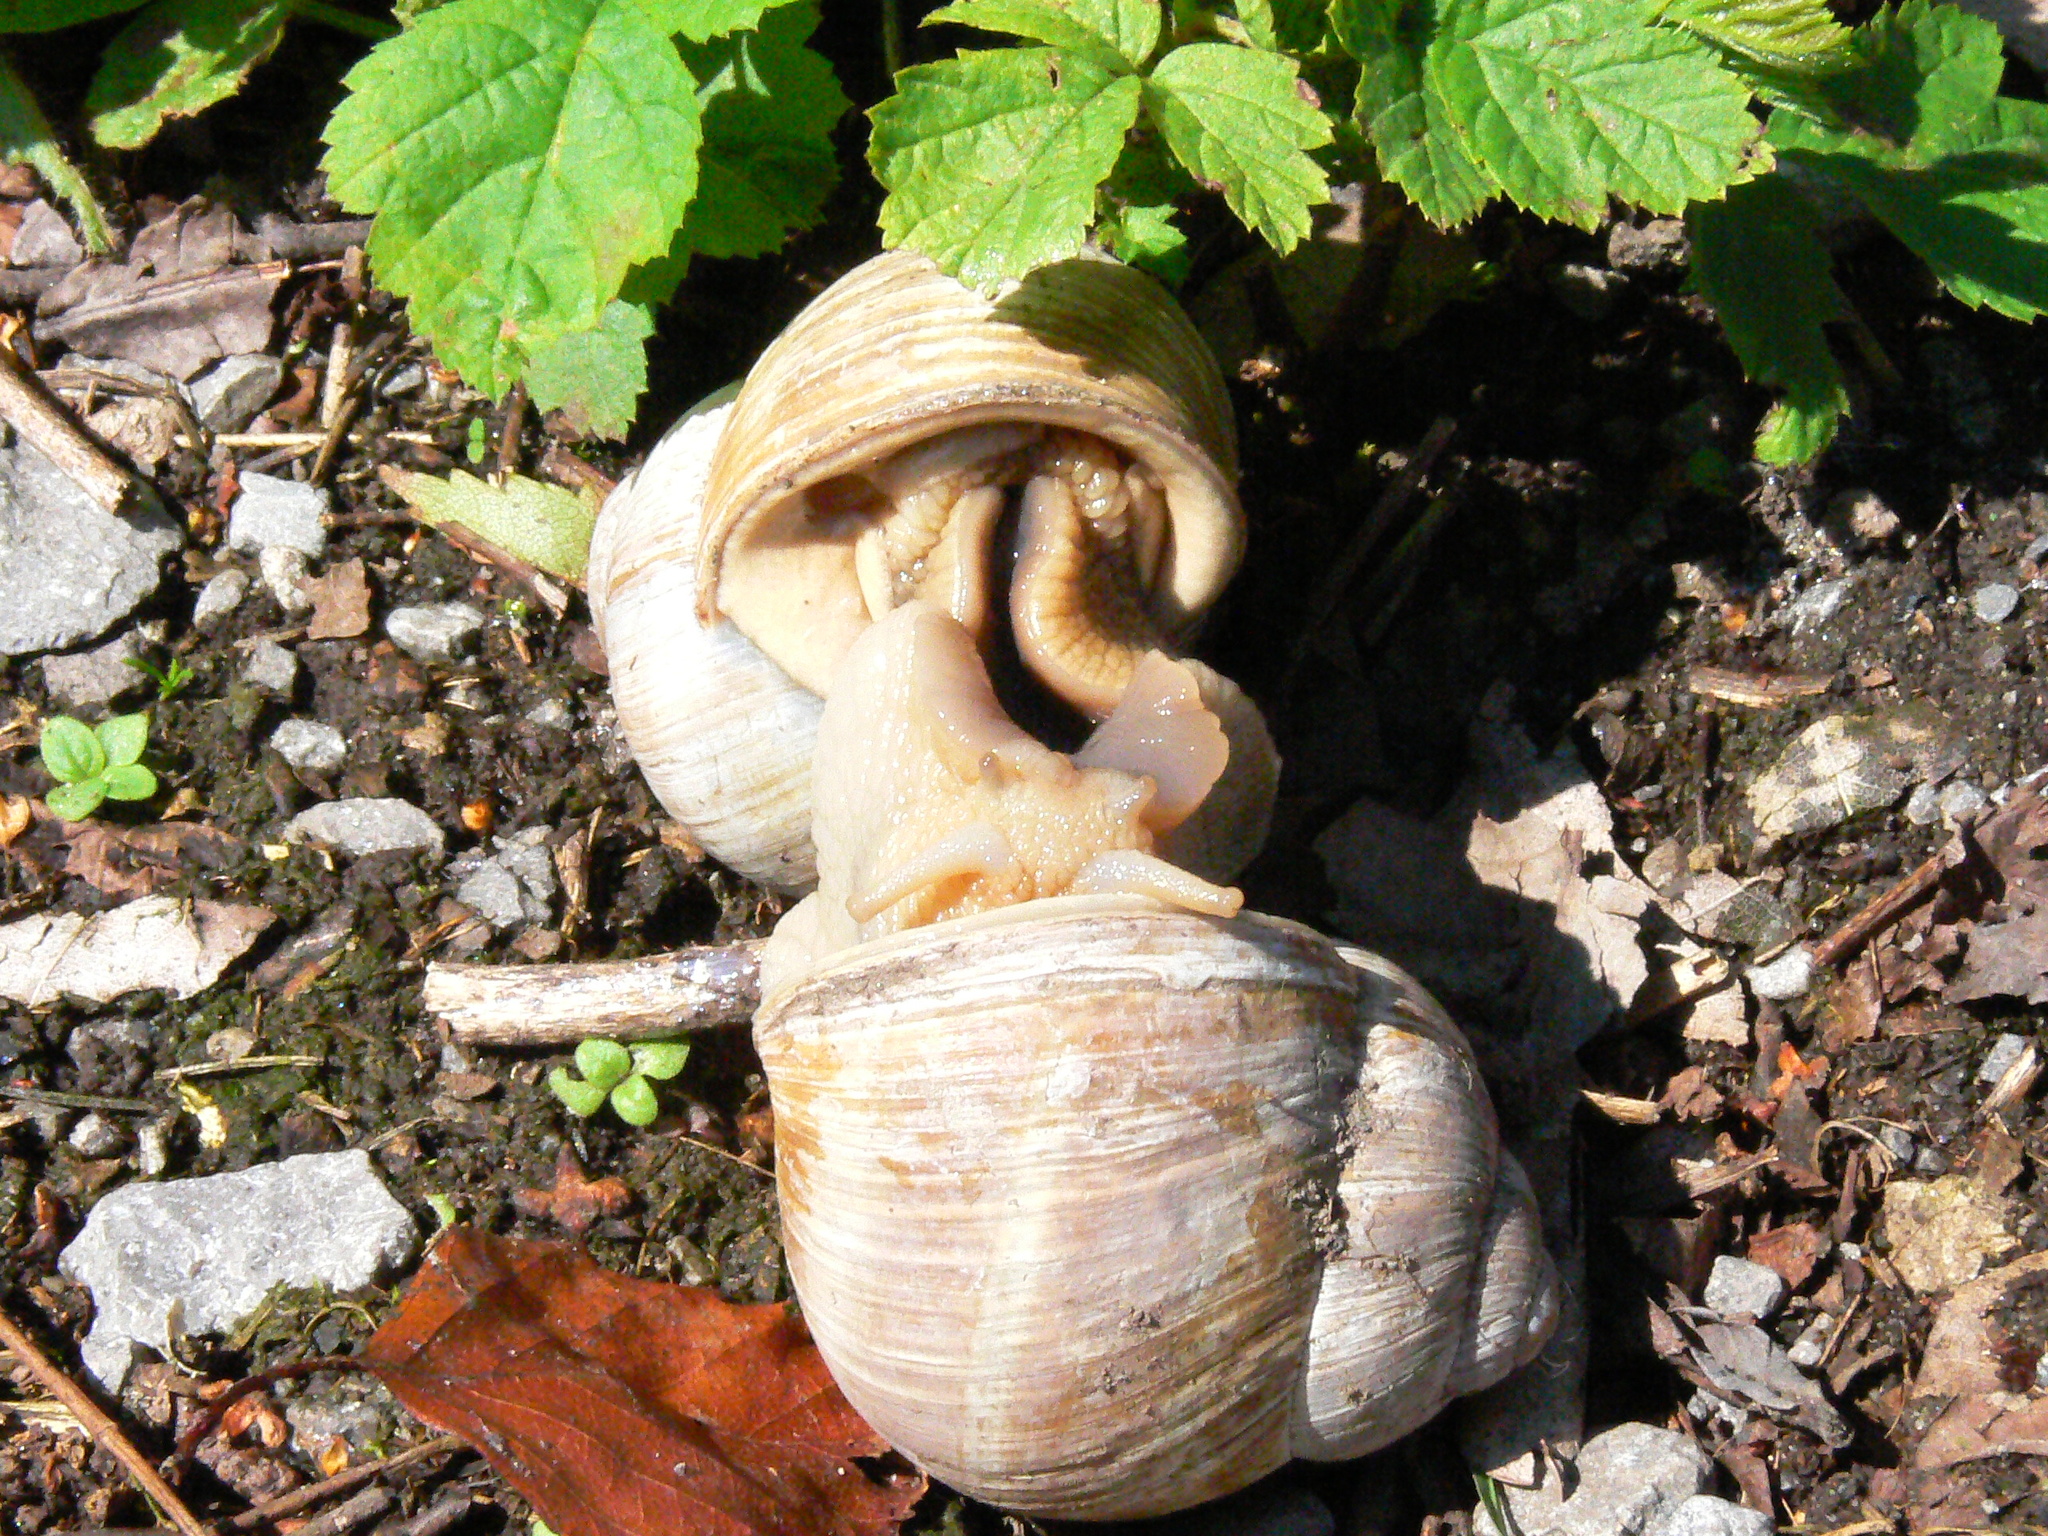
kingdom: Animalia
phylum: Mollusca
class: Gastropoda
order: Stylommatophora
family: Helicidae
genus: Helix
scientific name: Helix pomatia
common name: Roman snail
